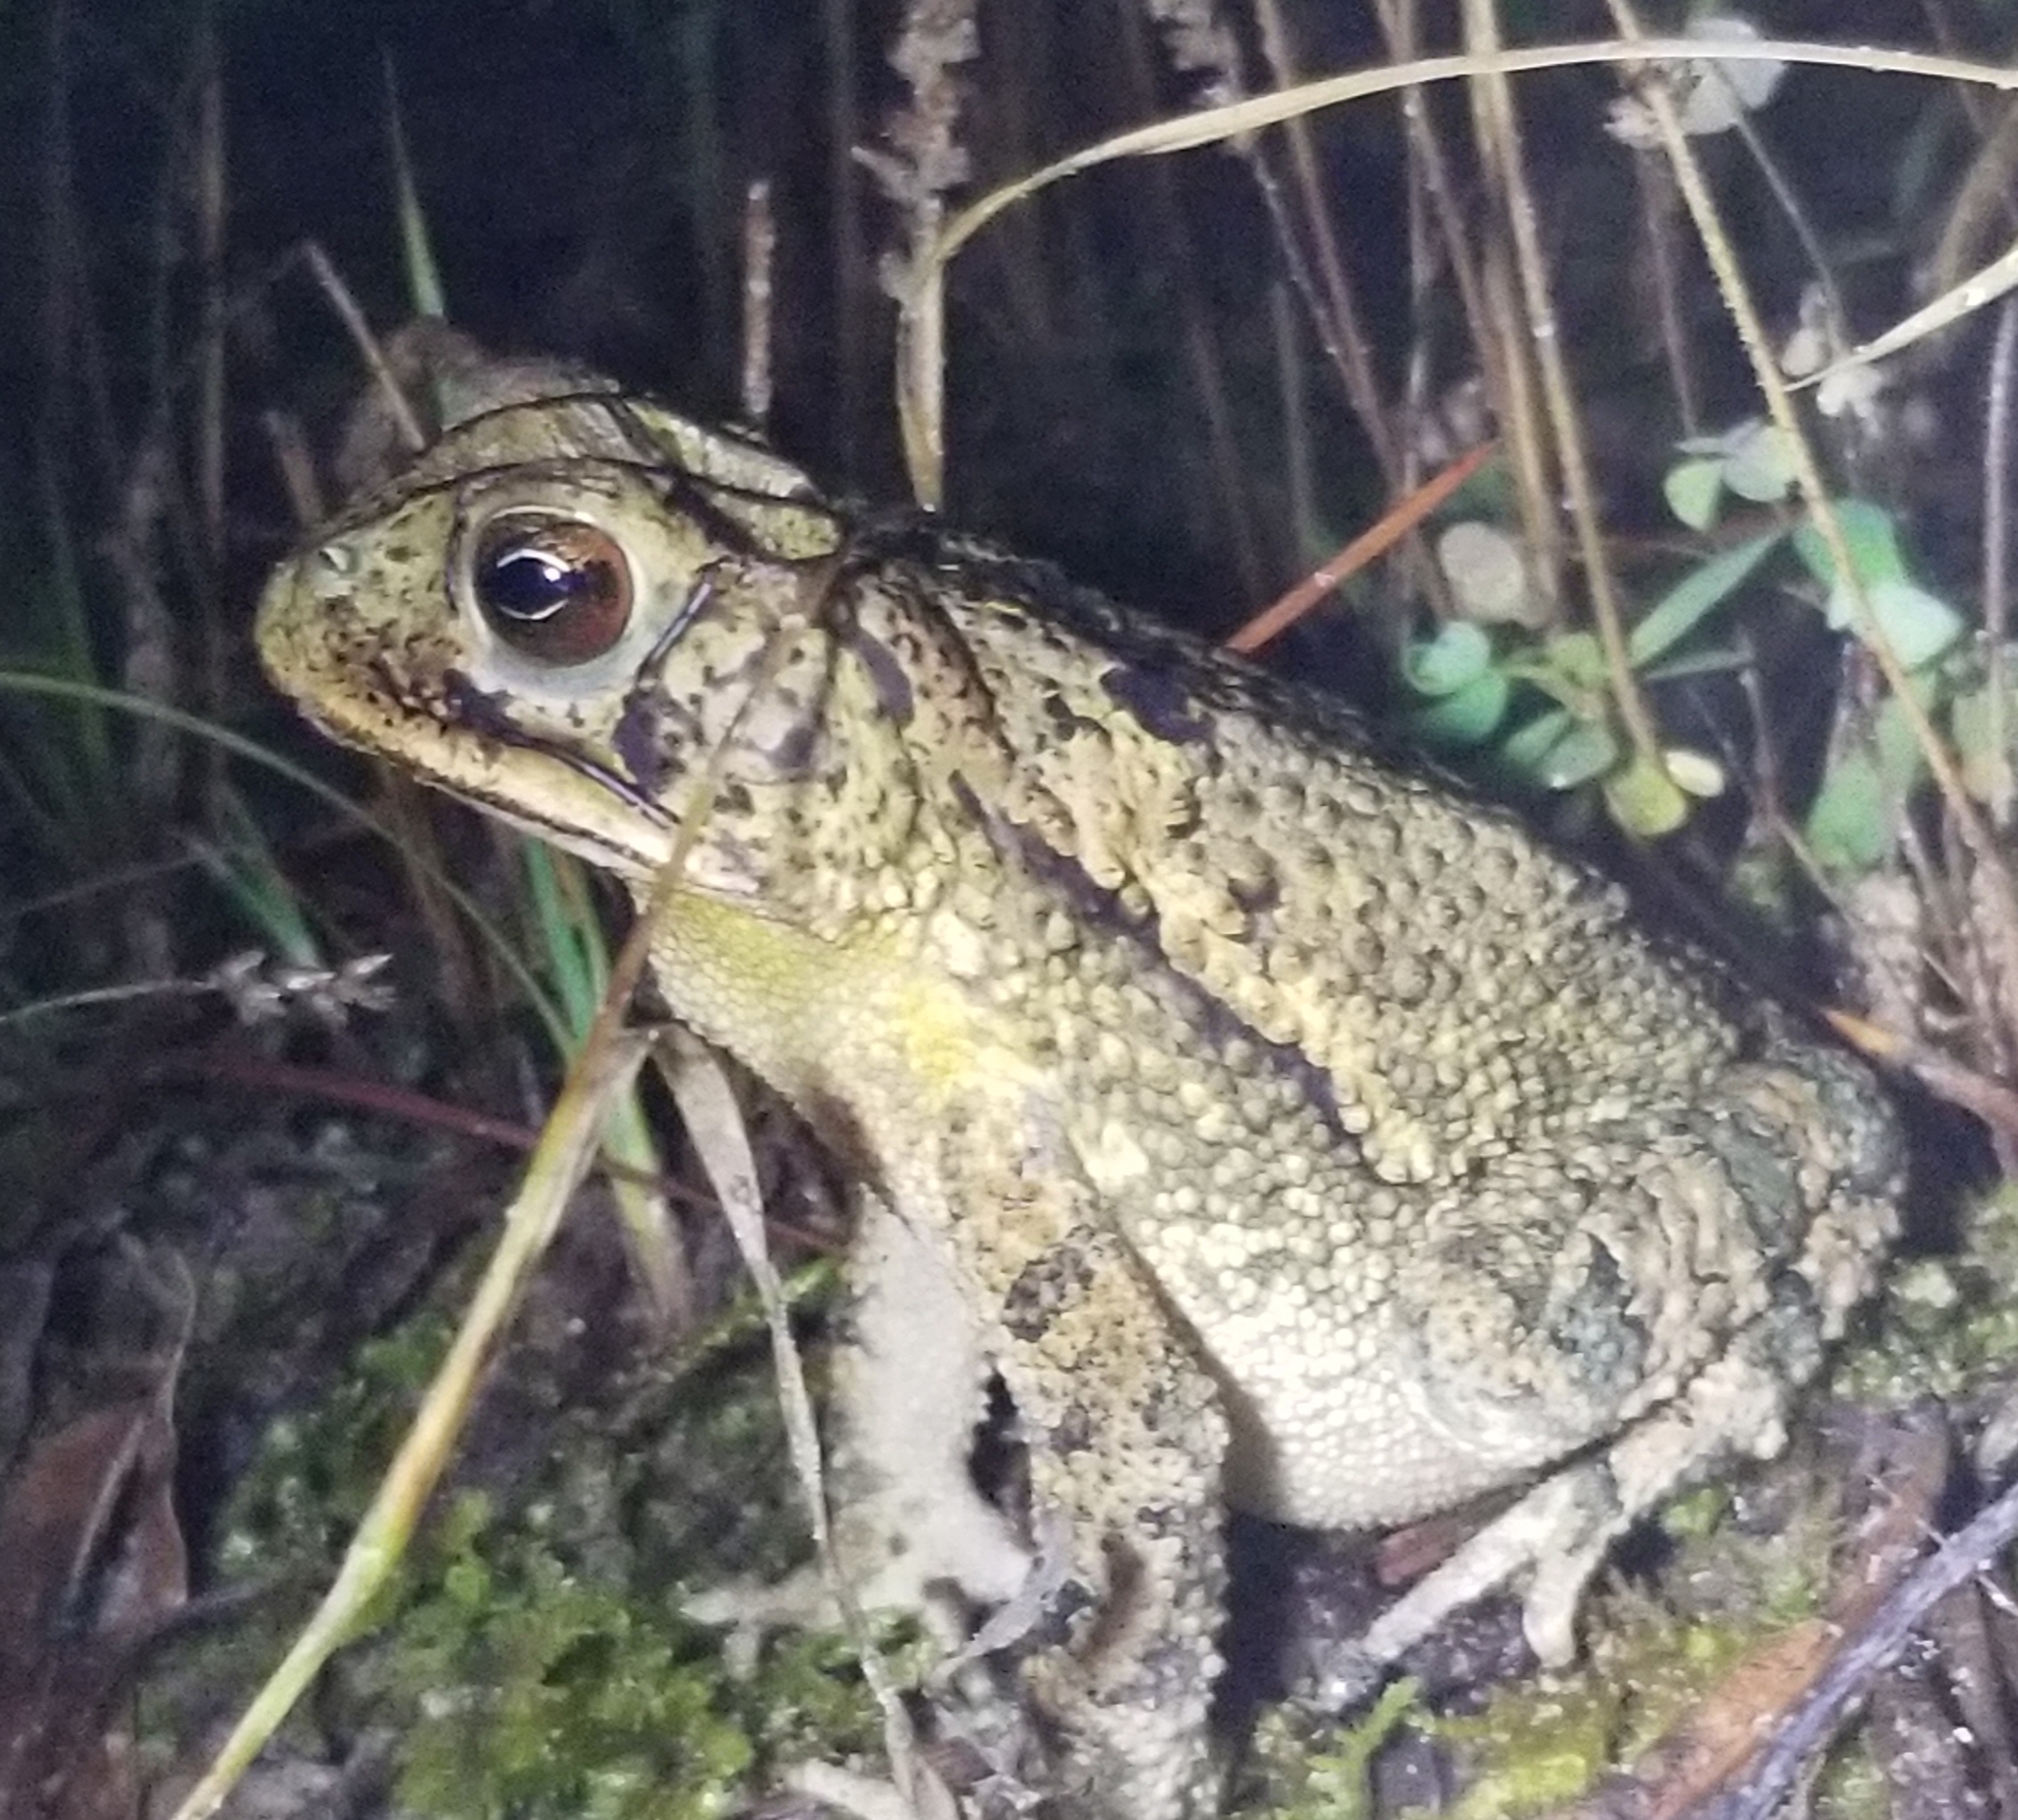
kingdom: Animalia
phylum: Chordata
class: Amphibia
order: Anura
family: Bufonidae
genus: Incilius
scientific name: Incilius nebulifer
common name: Gulf coast toad
